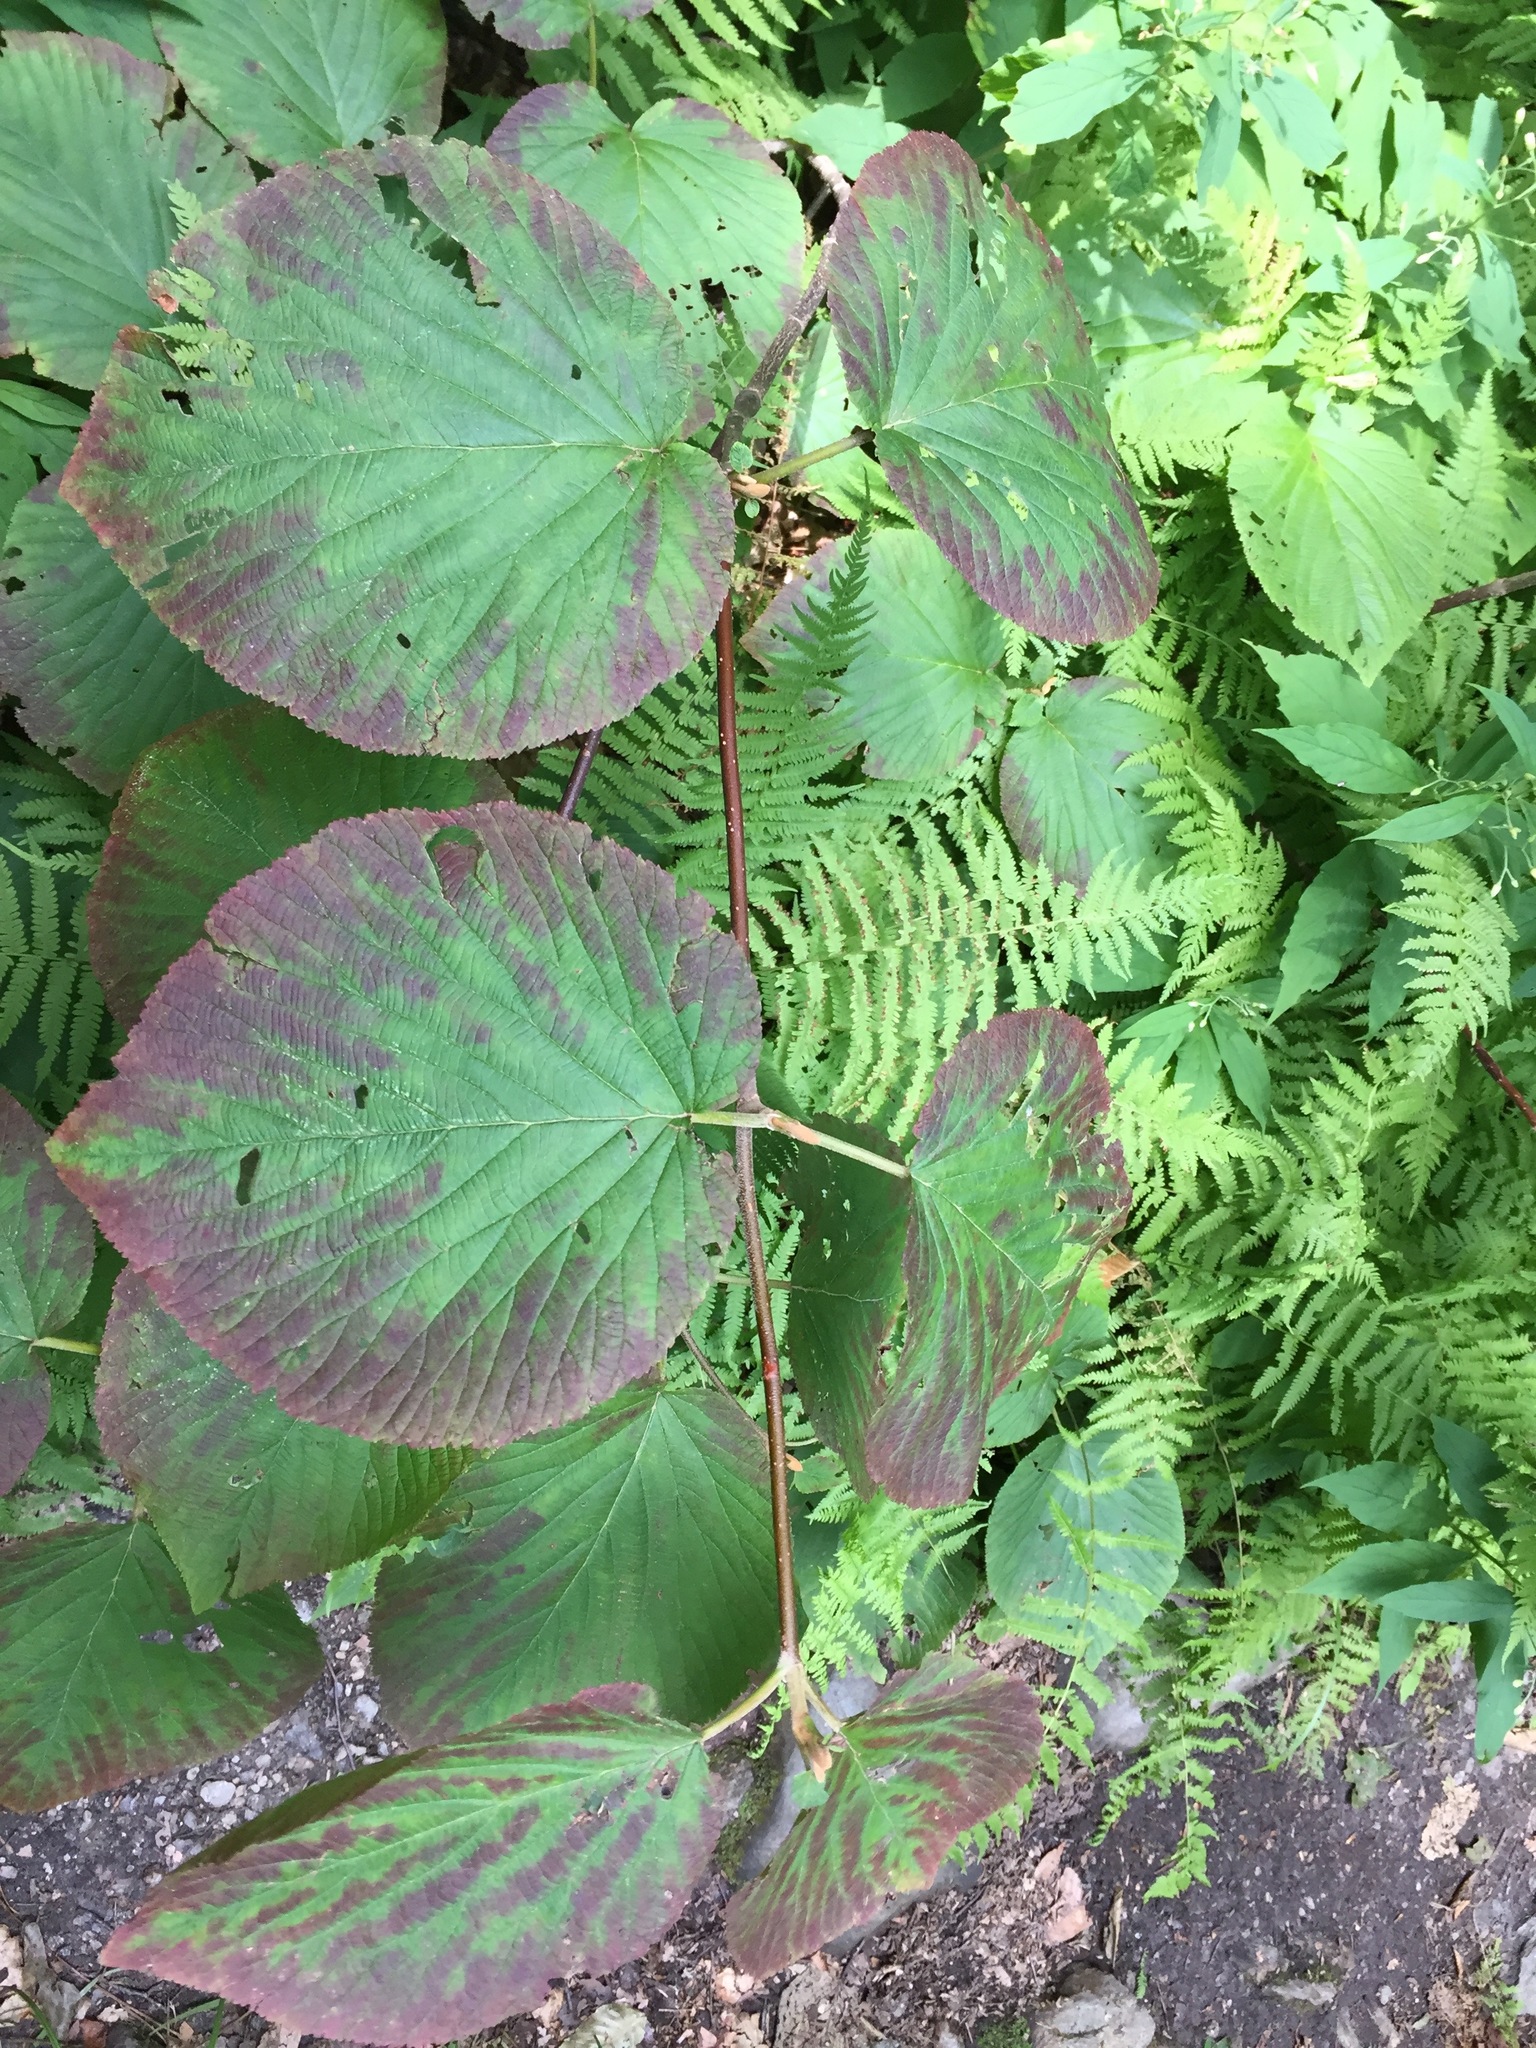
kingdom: Plantae
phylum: Tracheophyta
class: Magnoliopsida
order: Dipsacales
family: Viburnaceae
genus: Viburnum
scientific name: Viburnum lantanoides
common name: Hobblebush
